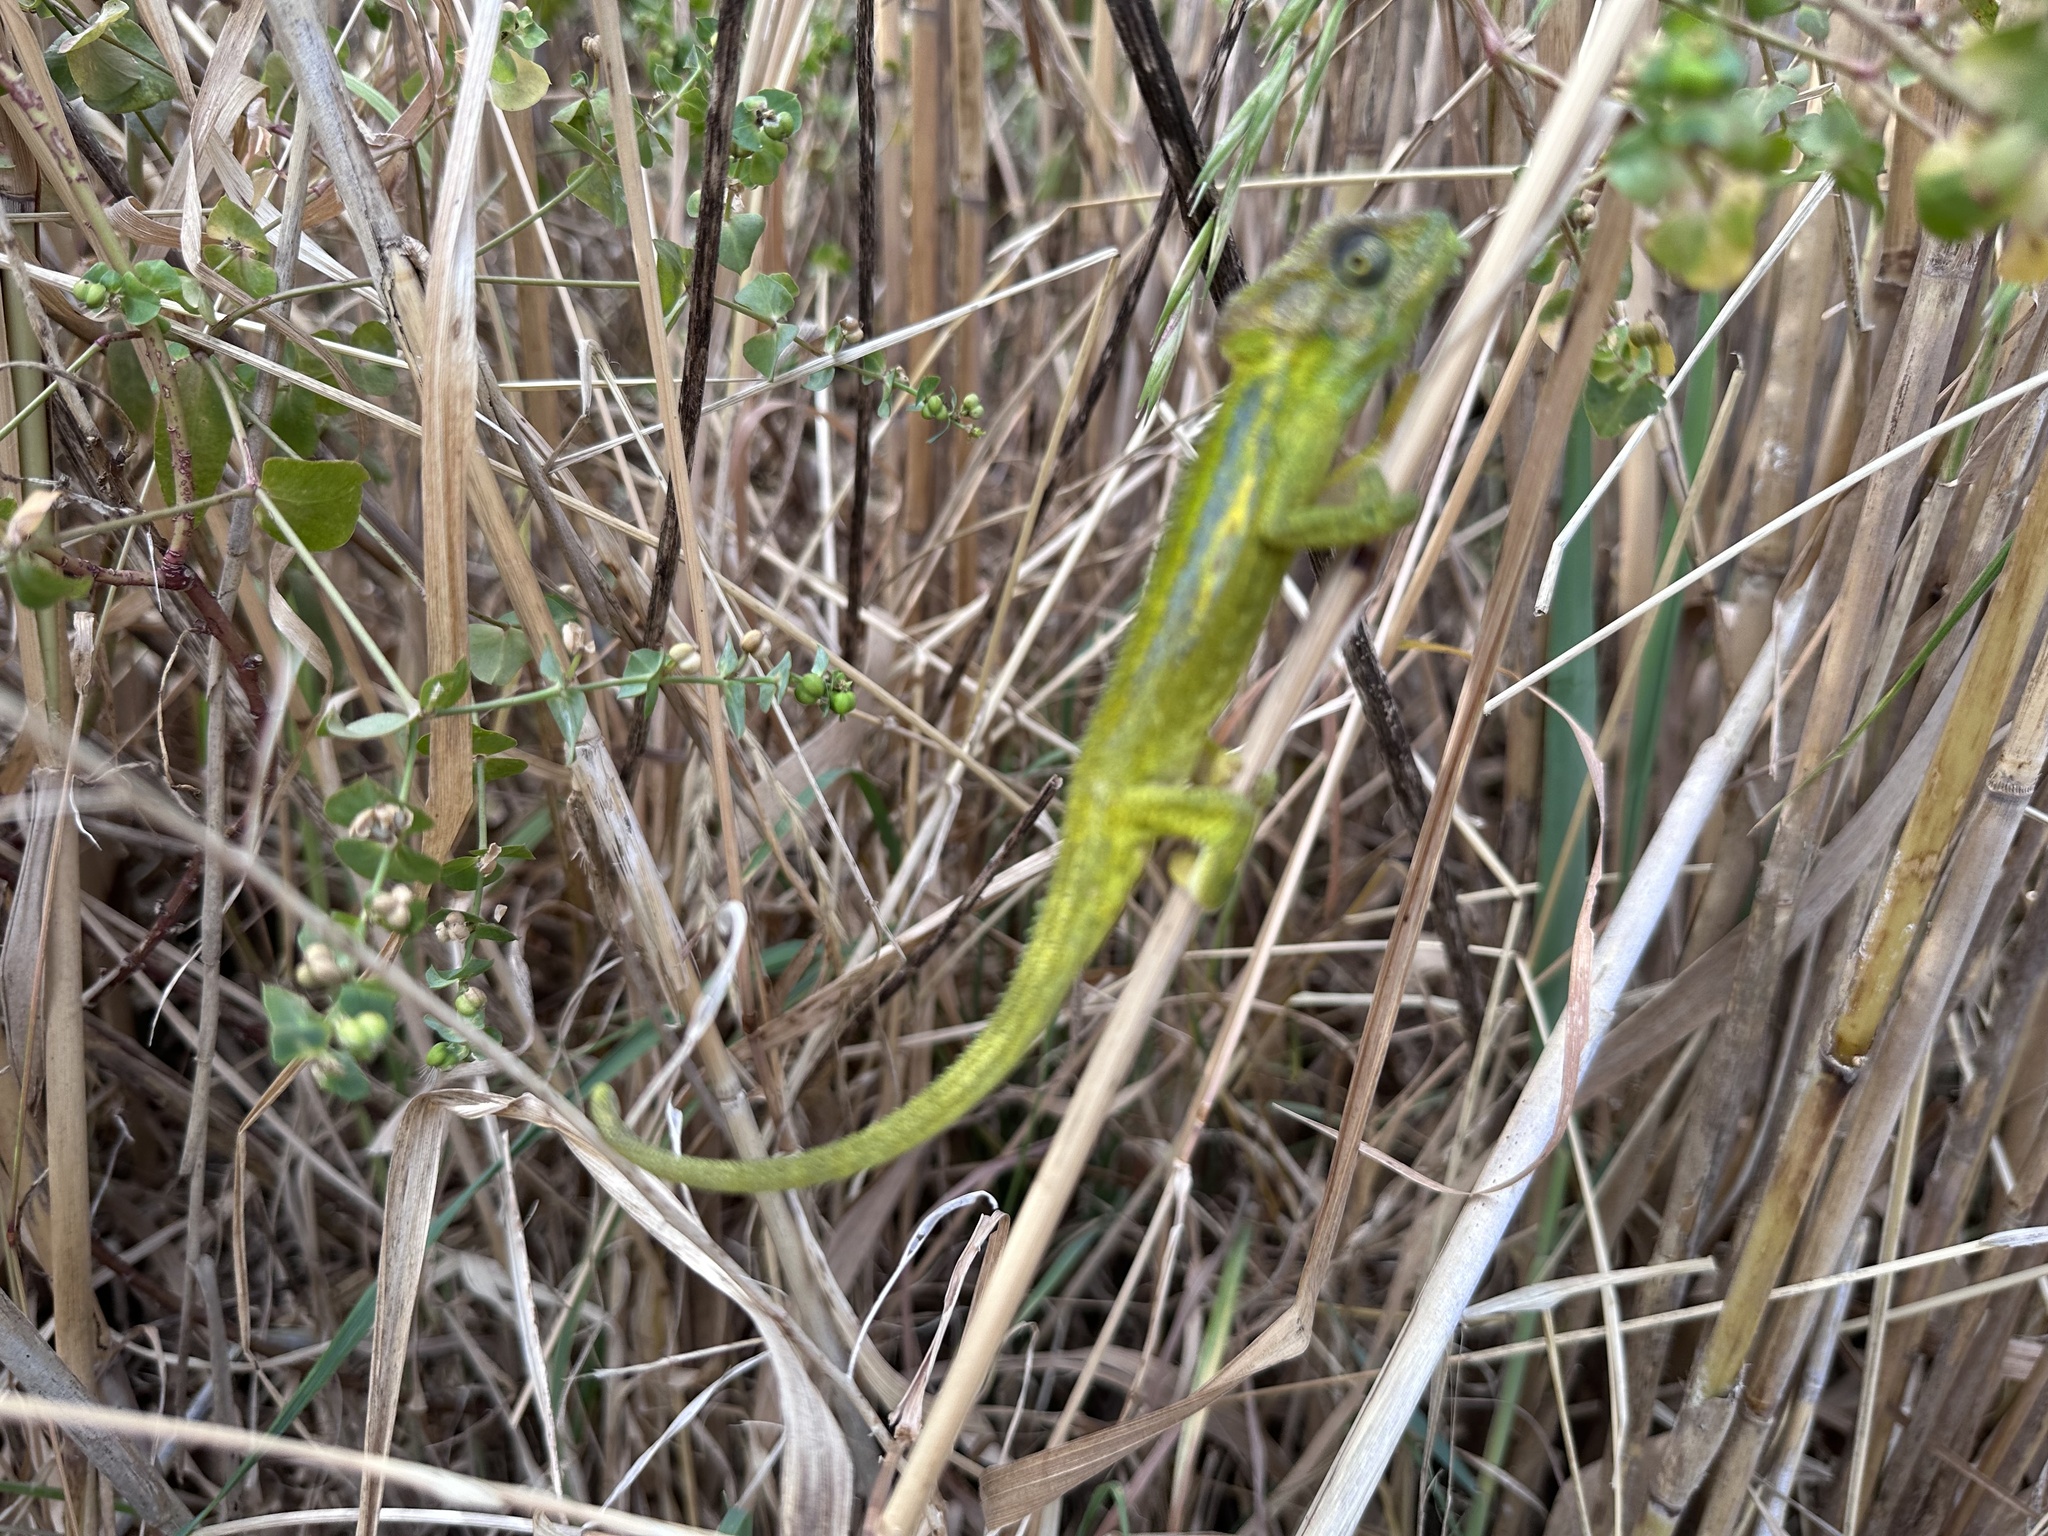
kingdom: Animalia
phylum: Chordata
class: Squamata
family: Chamaeleonidae
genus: Bradypodion
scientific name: Bradypodion pumilum
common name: Cape dwarf chameleon
